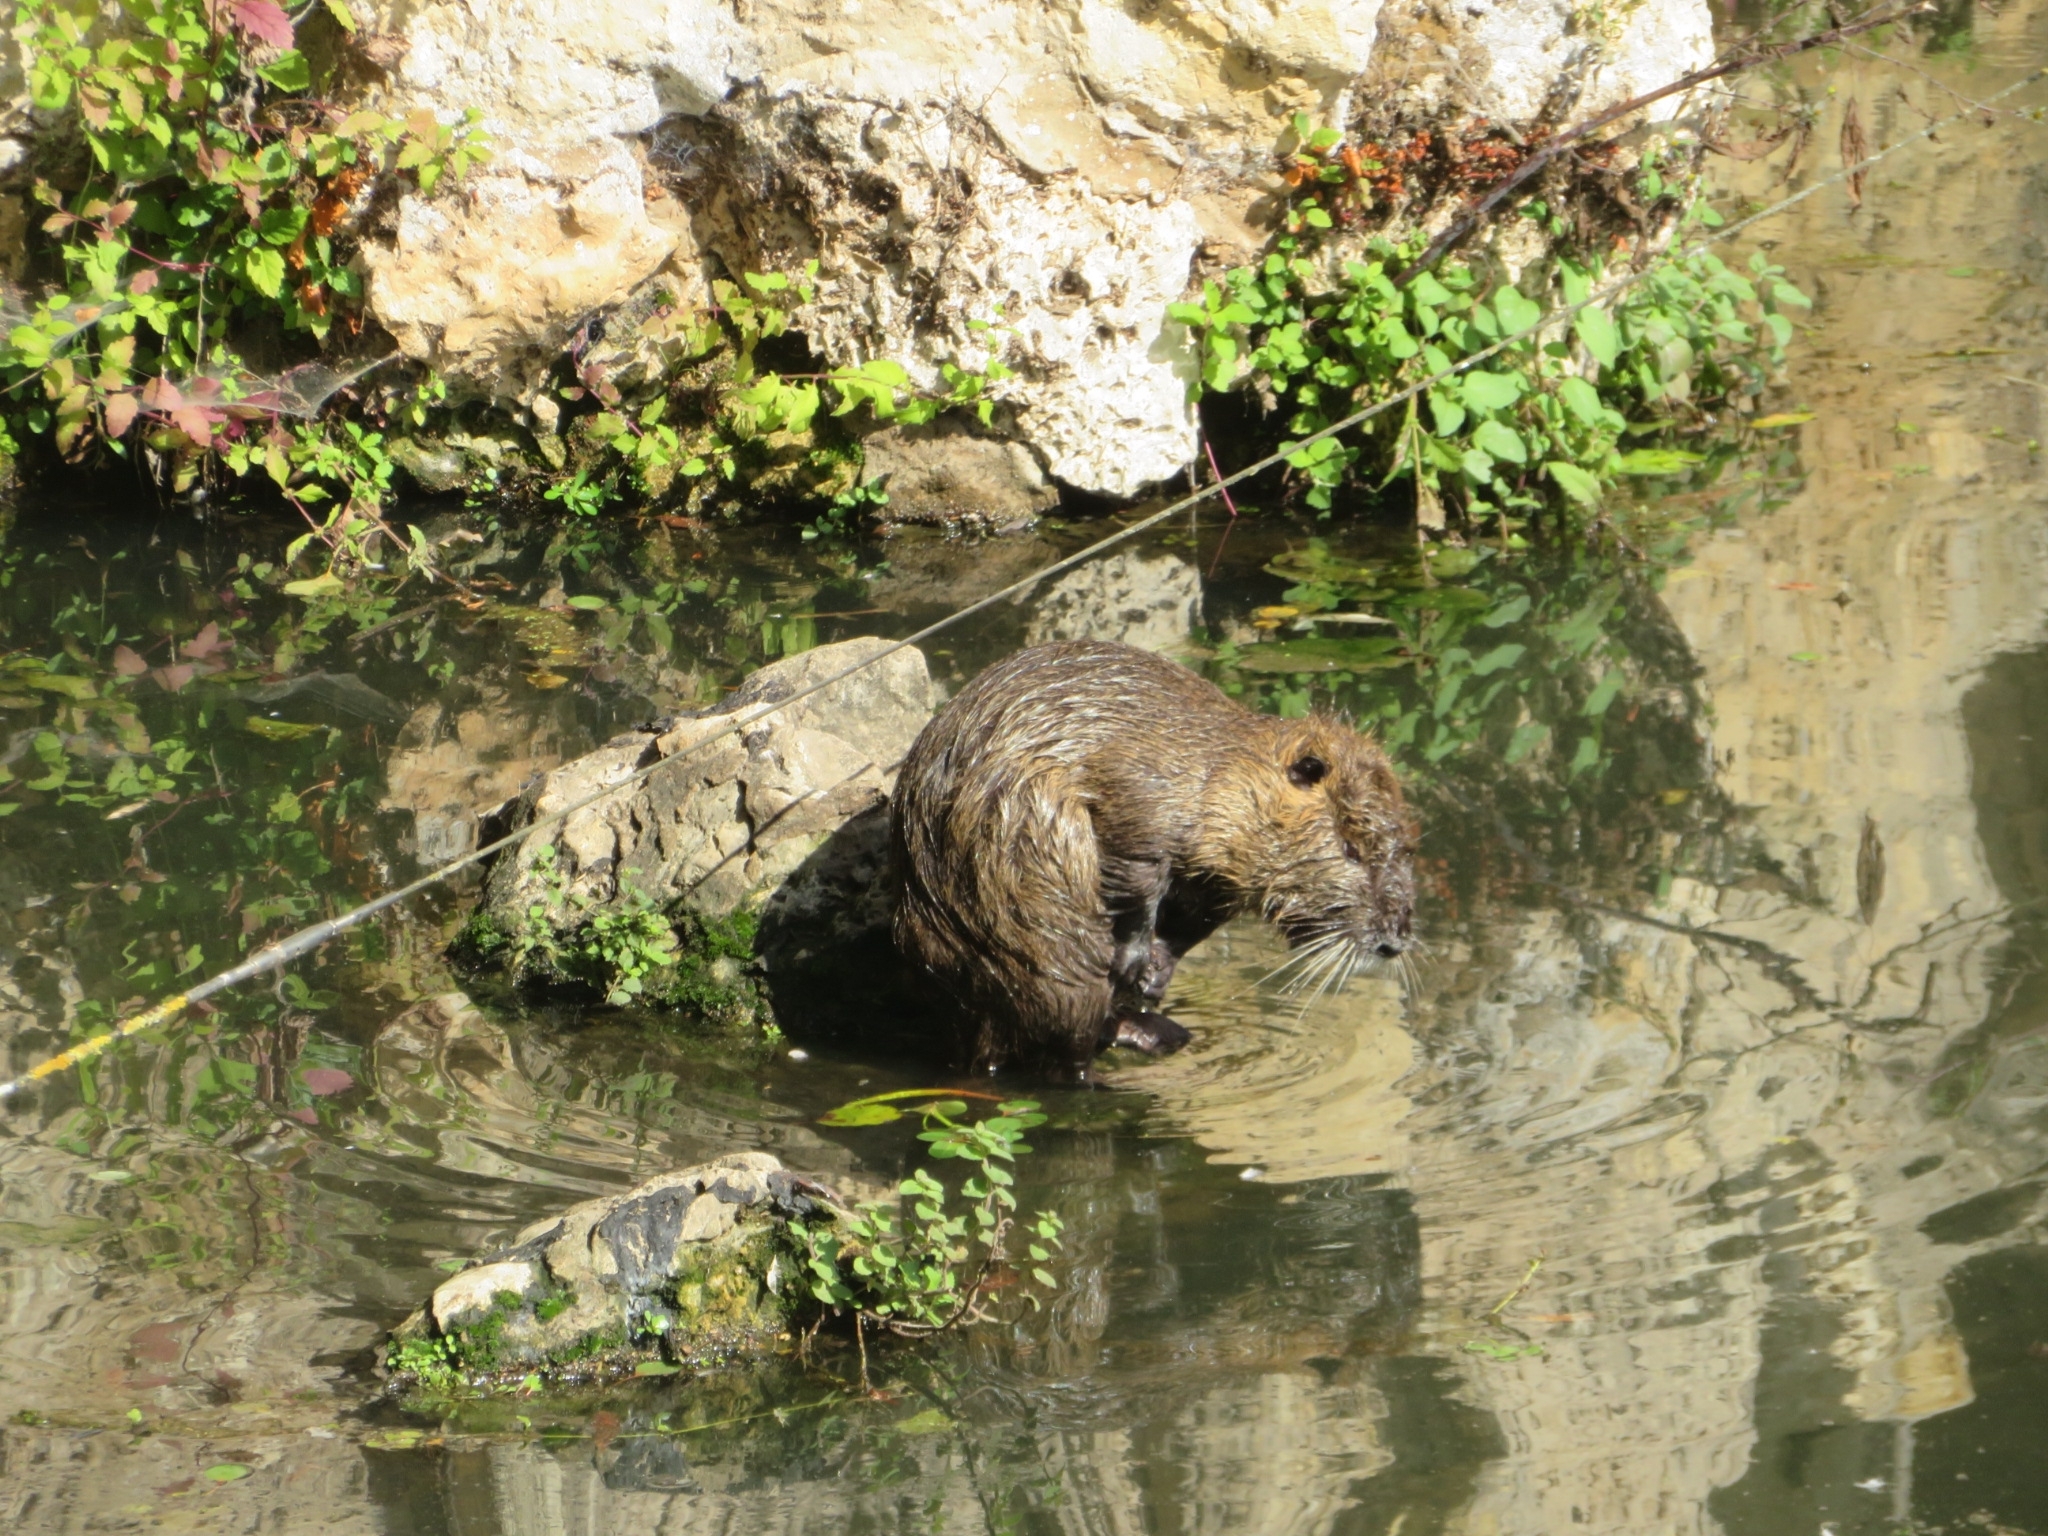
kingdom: Animalia
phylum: Chordata
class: Mammalia
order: Rodentia
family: Myocastoridae
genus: Myocastor
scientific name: Myocastor coypus
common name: Coypu
